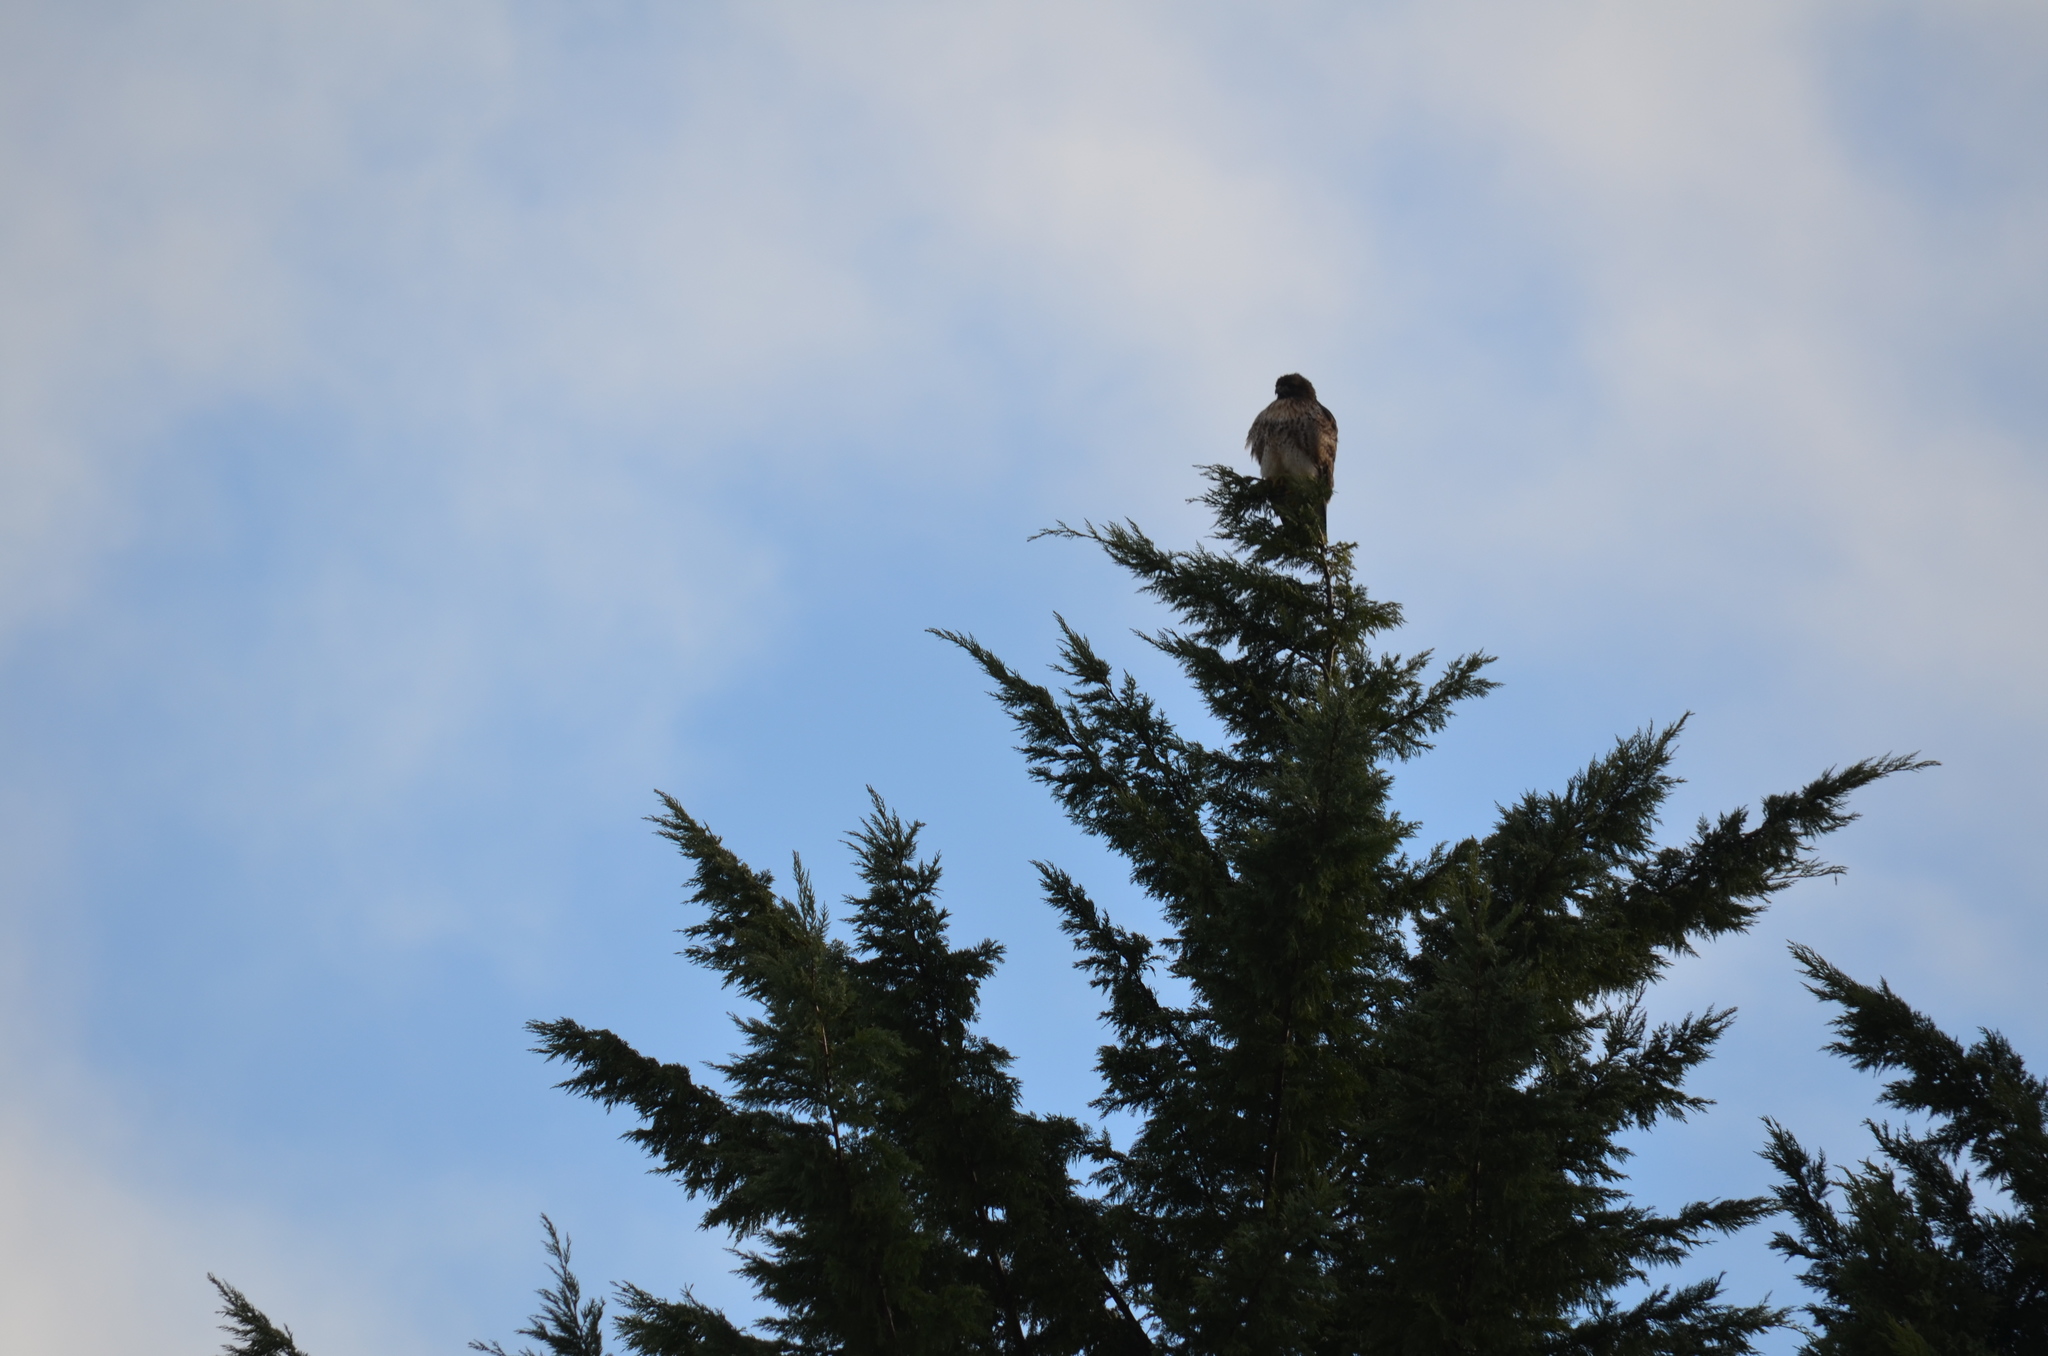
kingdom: Animalia
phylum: Chordata
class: Aves
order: Accipitriformes
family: Accipitridae
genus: Buteo
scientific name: Buteo jamaicensis
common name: Red-tailed hawk
